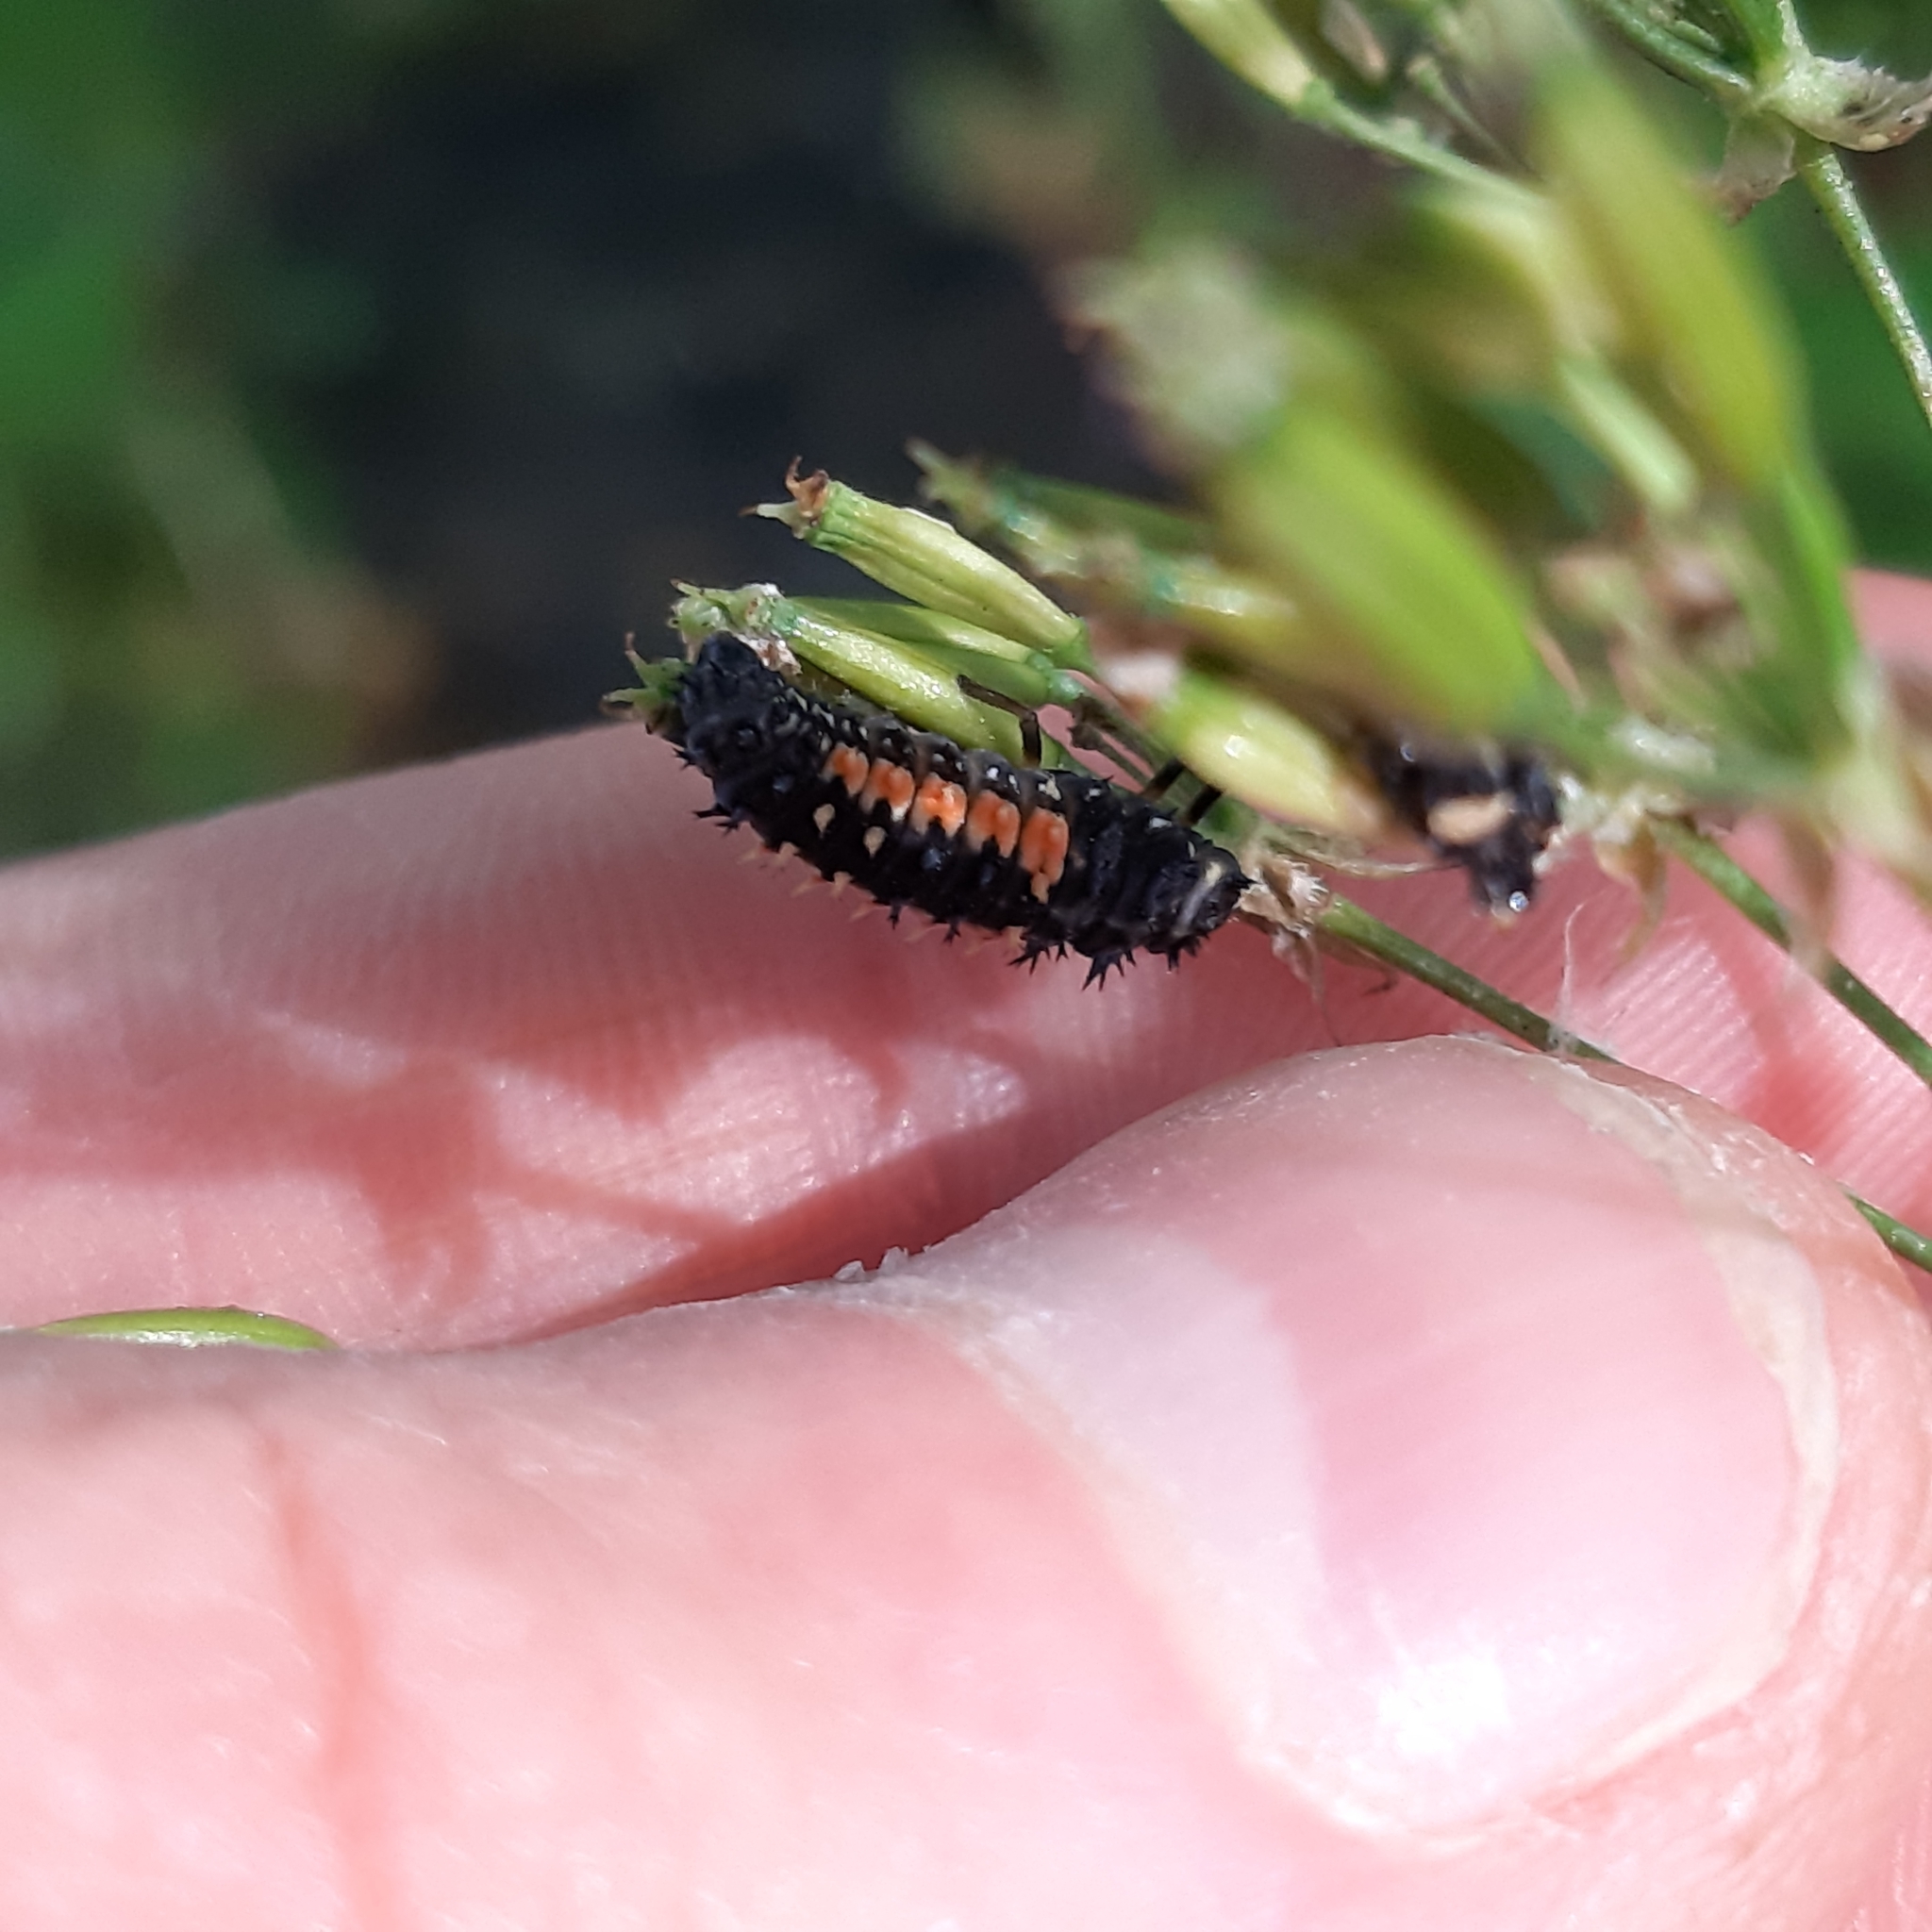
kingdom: Animalia
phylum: Arthropoda
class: Insecta
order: Coleoptera
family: Coccinellidae
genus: Harmonia
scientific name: Harmonia axyridis
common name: Harlequin ladybird
